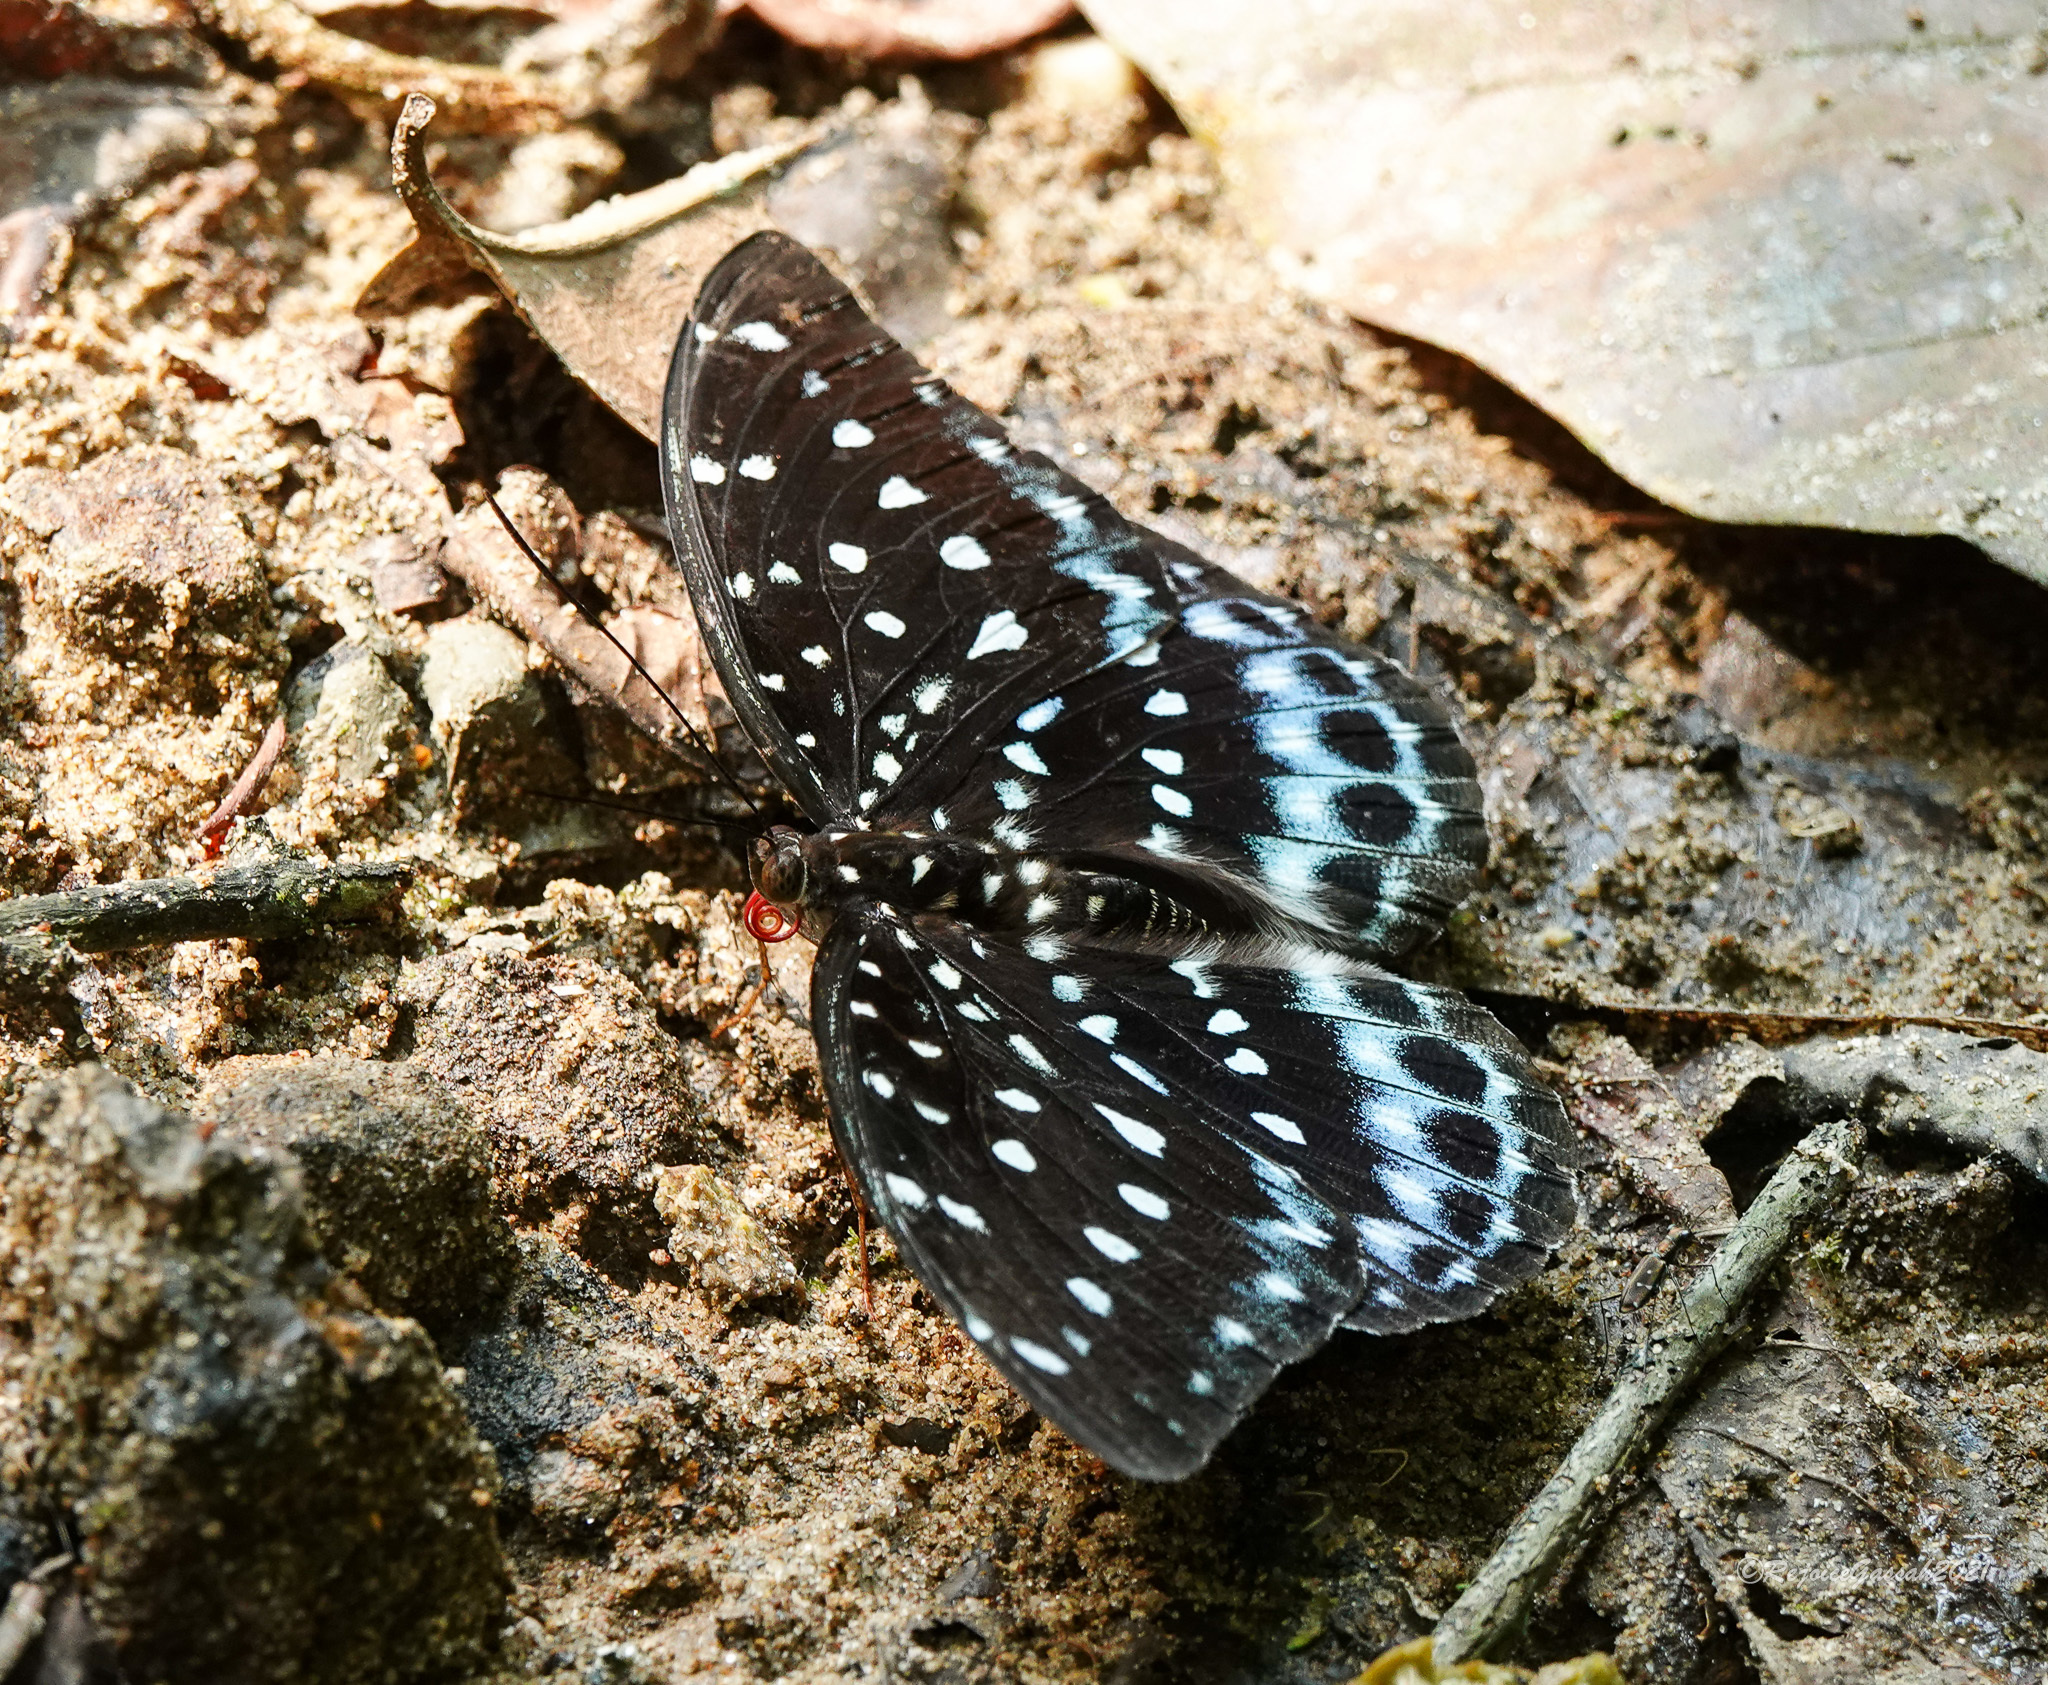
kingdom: Animalia
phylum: Arthropoda
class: Insecta
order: Lepidoptera
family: Nymphalidae
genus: Lexias
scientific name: Lexias
